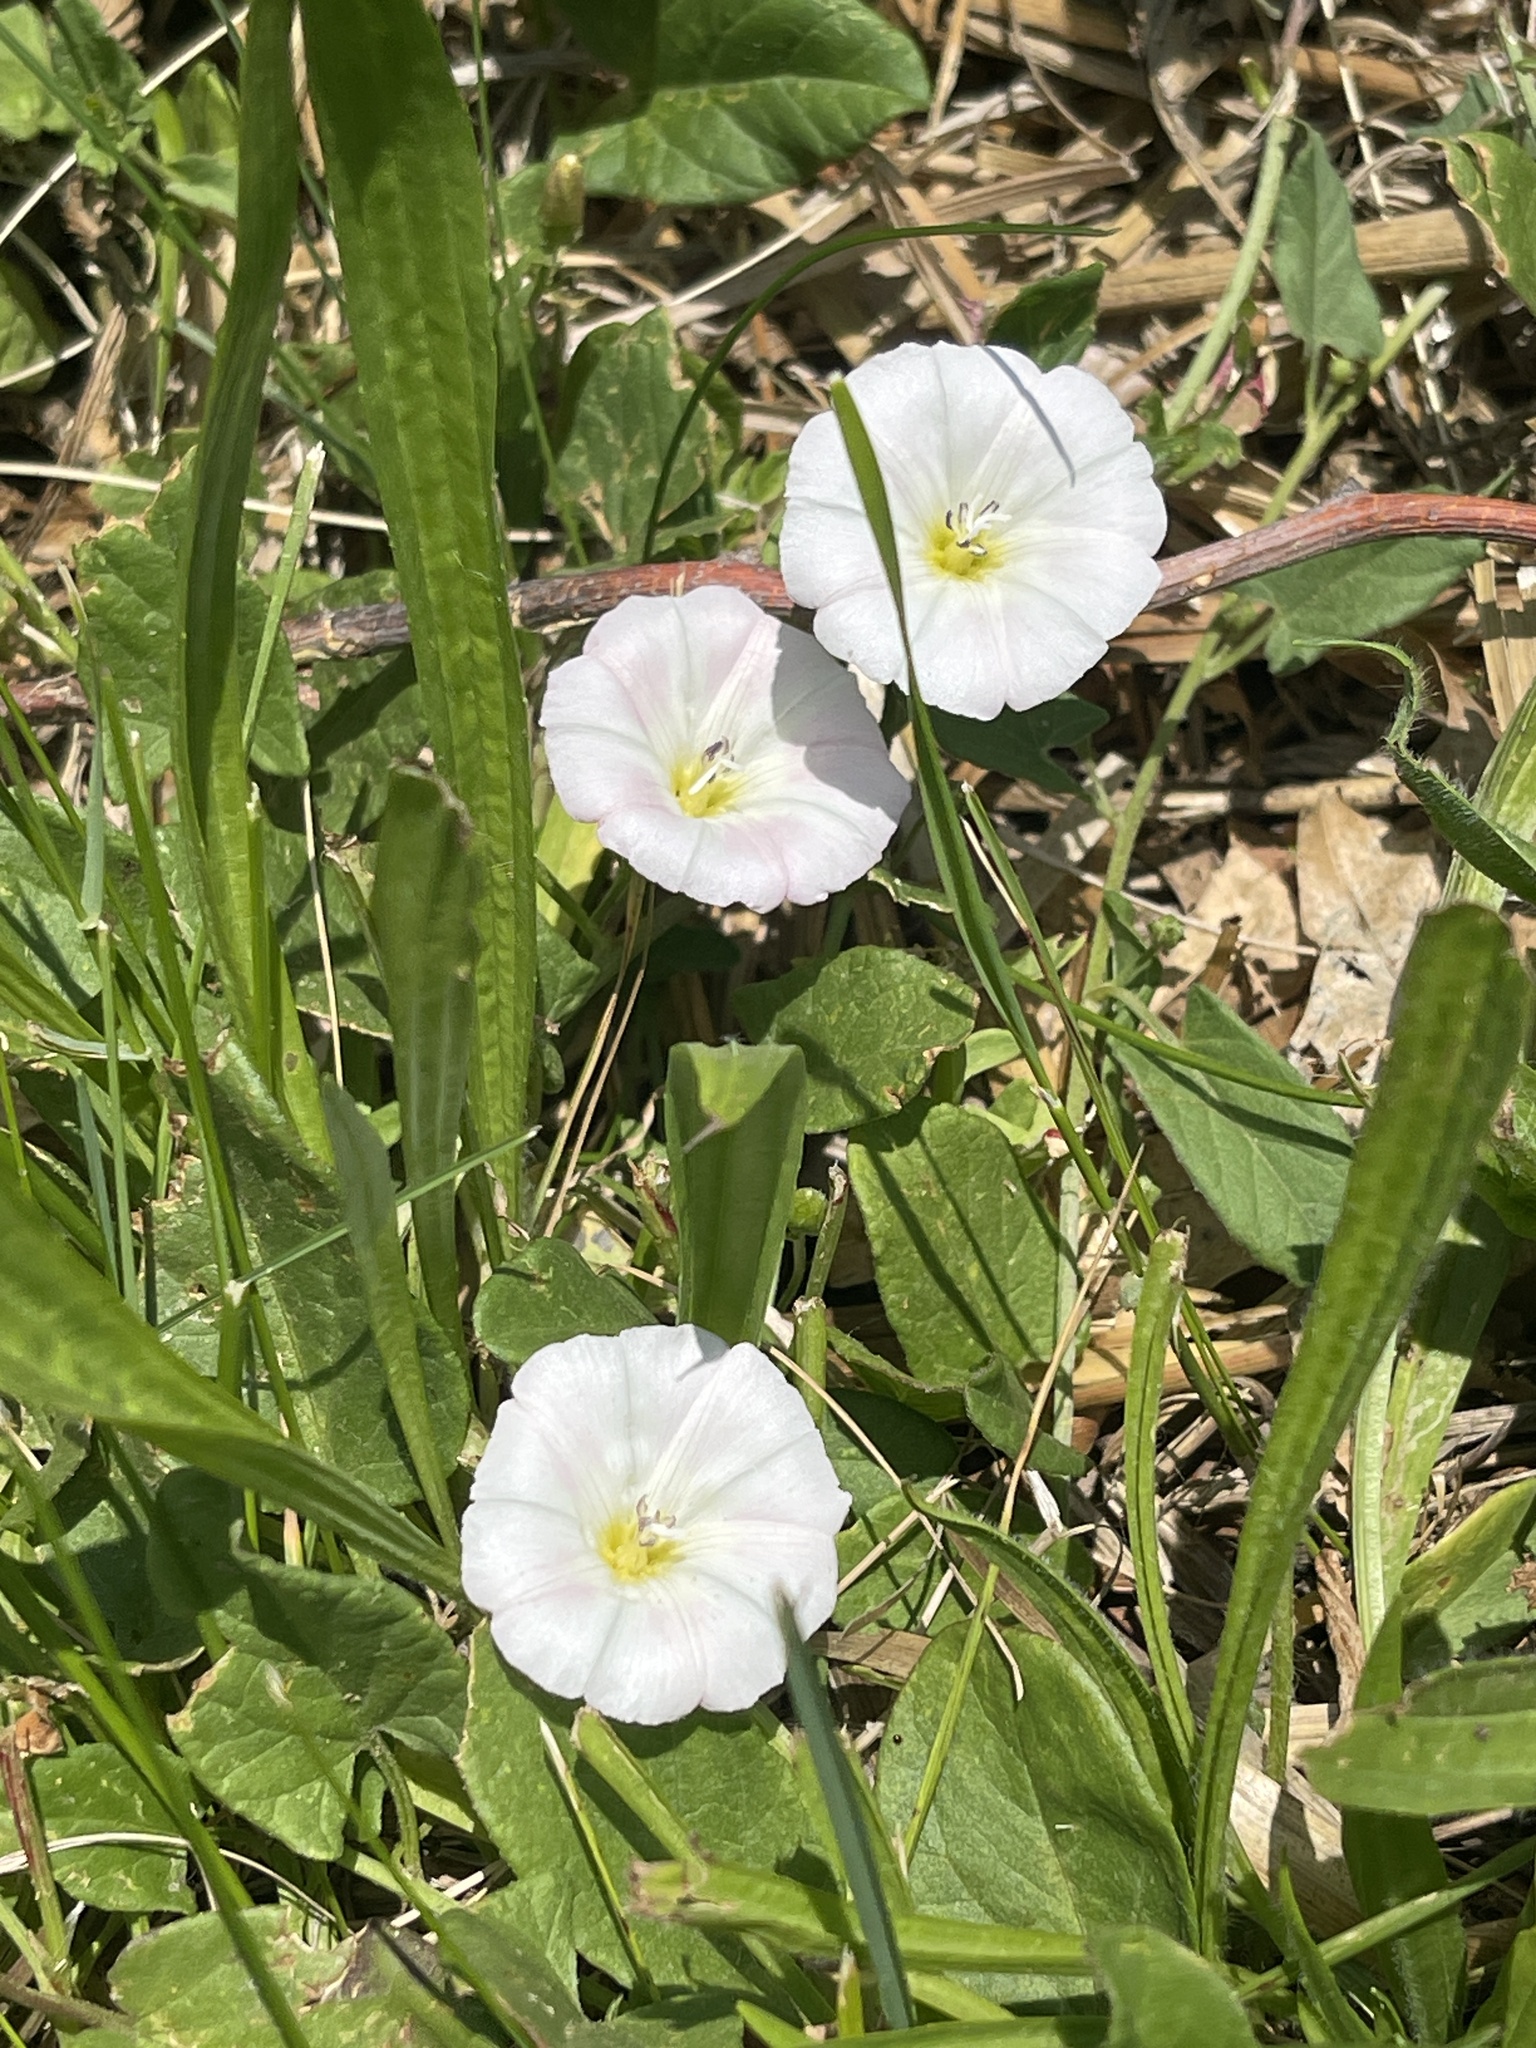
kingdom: Plantae
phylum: Tracheophyta
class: Magnoliopsida
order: Solanales
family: Convolvulaceae
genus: Convolvulus
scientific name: Convolvulus arvensis
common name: Field bindweed
